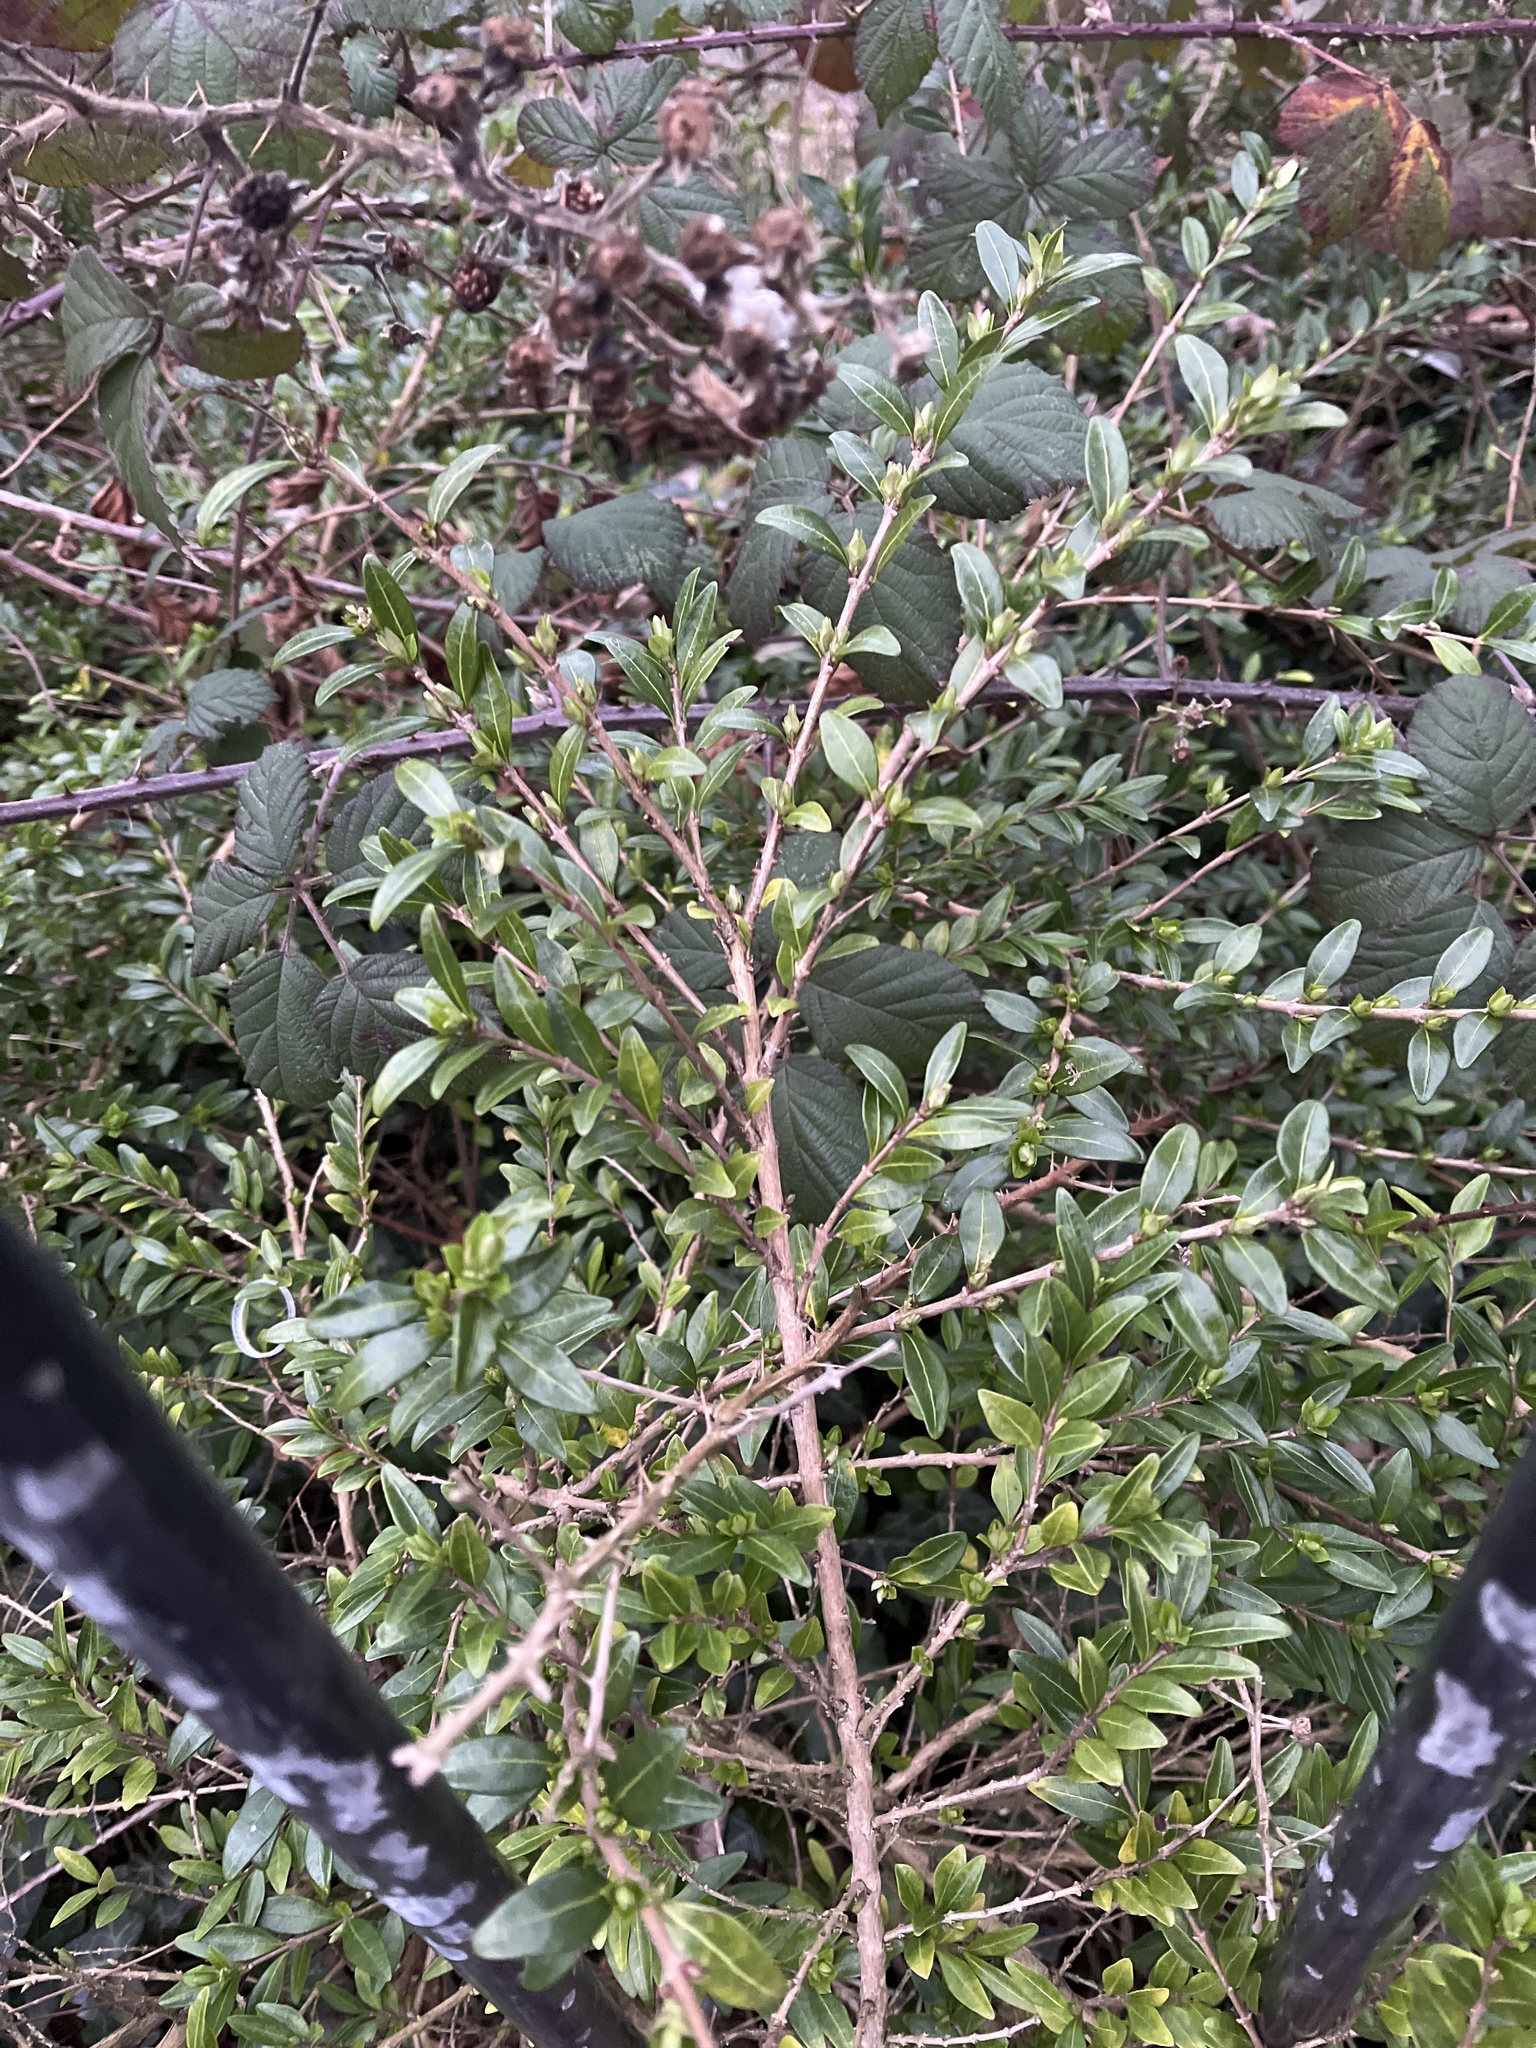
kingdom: Plantae
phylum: Tracheophyta
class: Magnoliopsida
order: Dipsacales
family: Caprifoliaceae
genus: Lonicera
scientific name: Lonicera ligustrina
